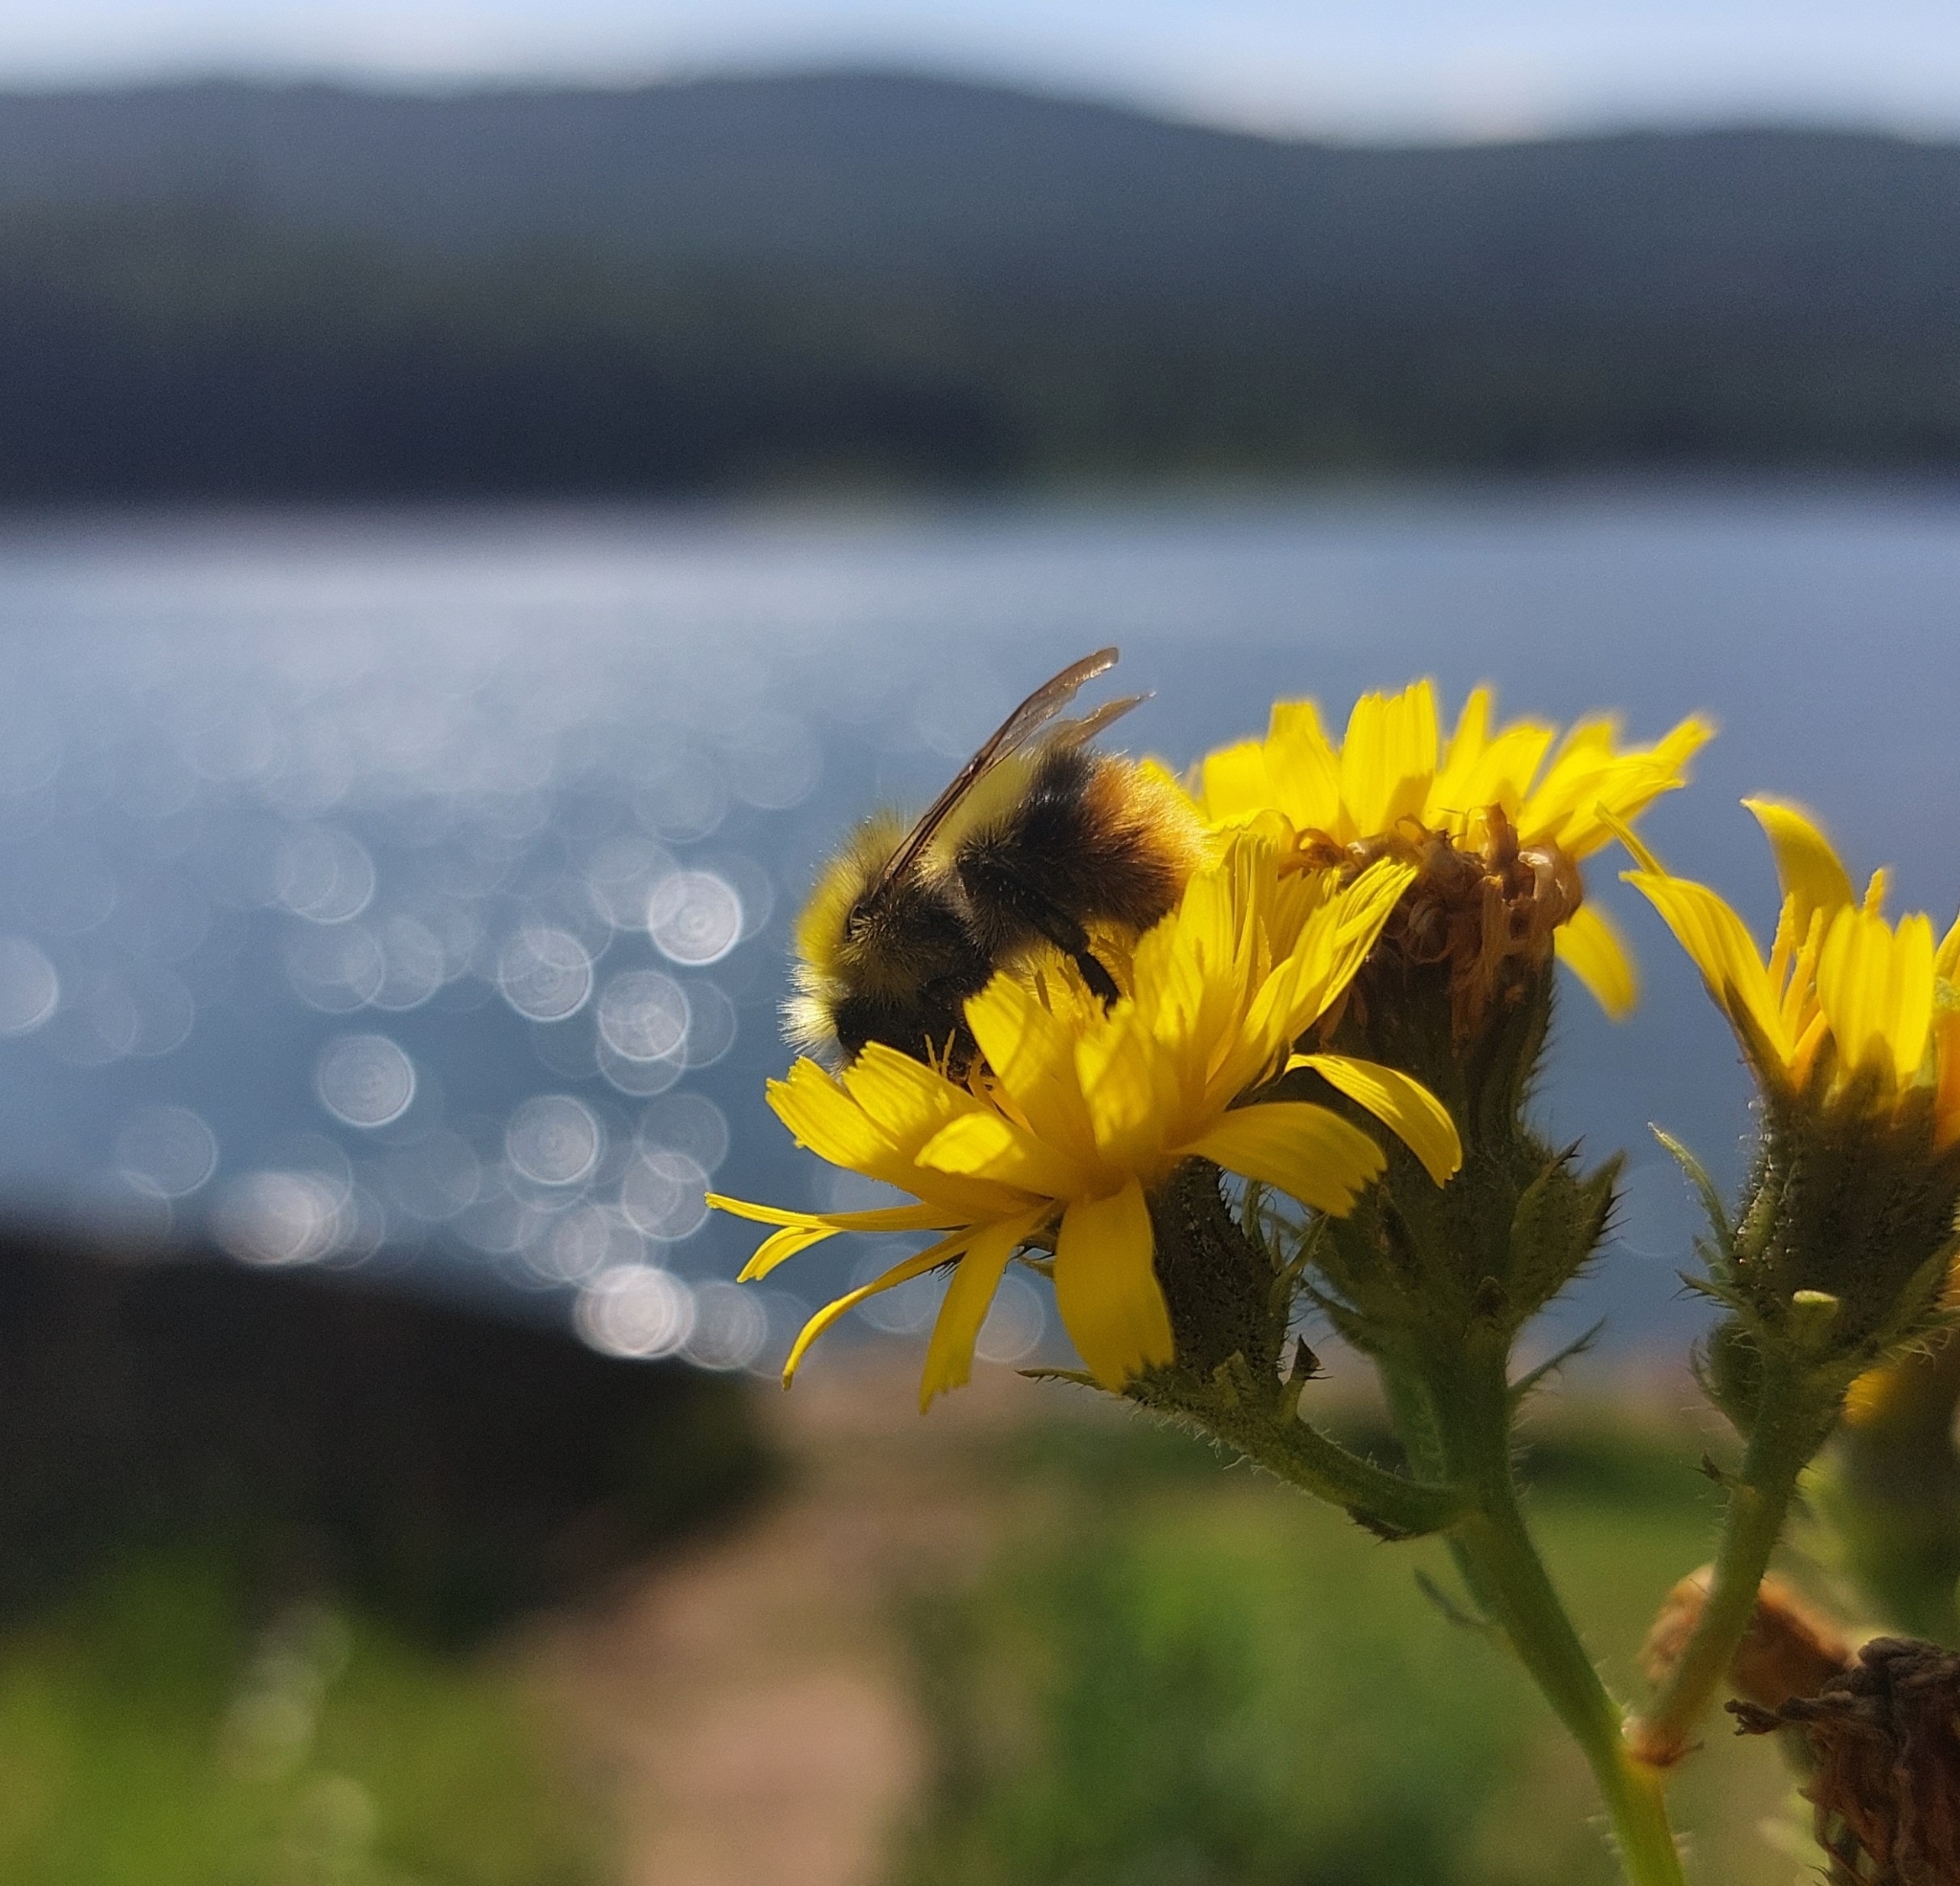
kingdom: Animalia
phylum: Arthropoda
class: Insecta
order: Hymenoptera
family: Apidae
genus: Bombus
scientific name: Bombus pratorum
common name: Early humble-bee
